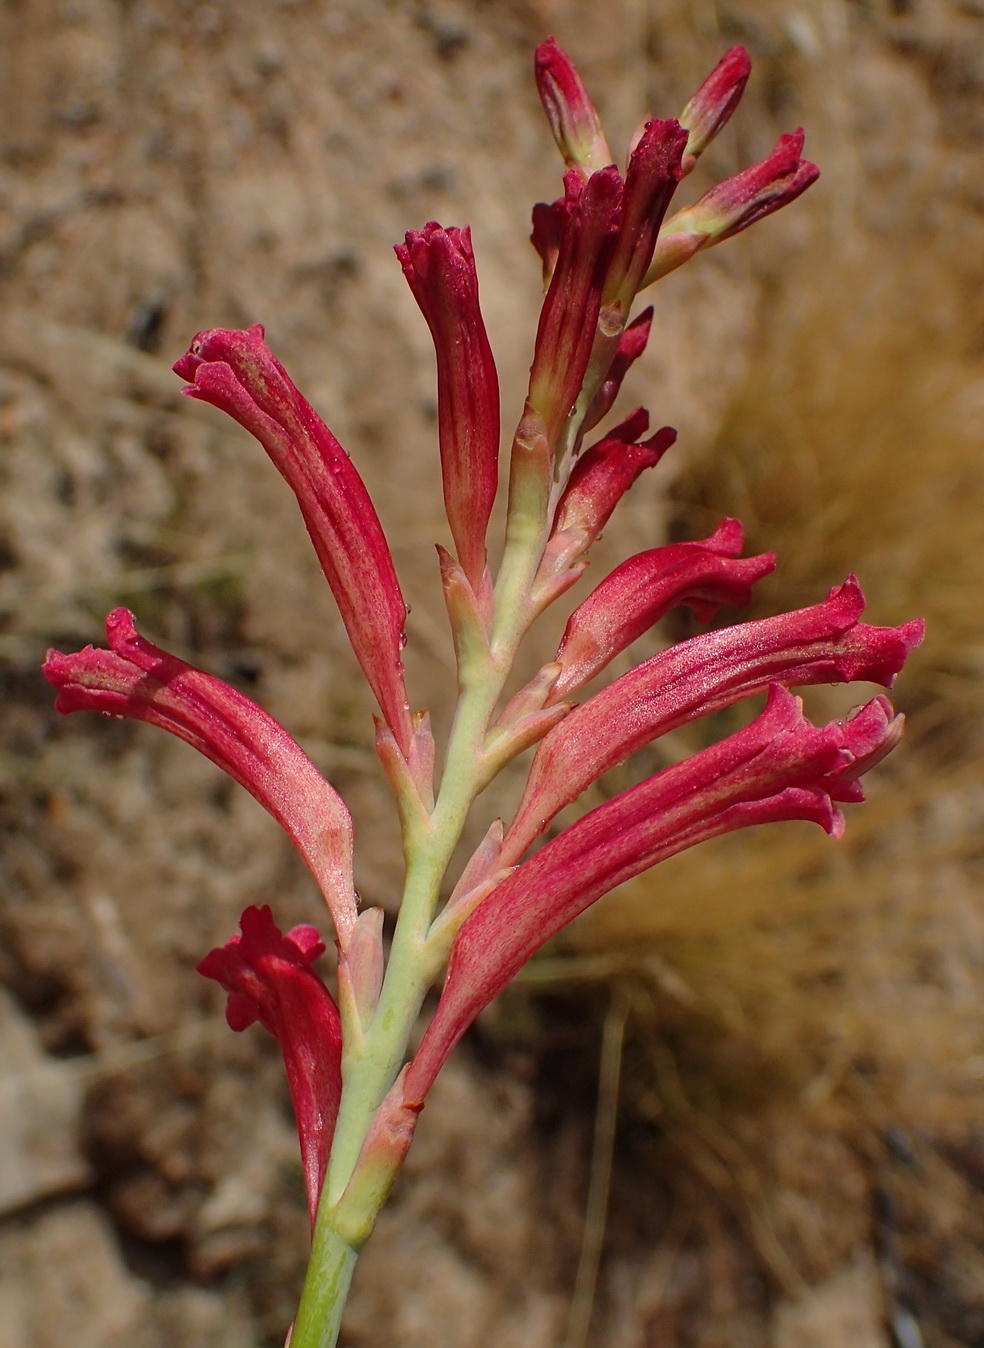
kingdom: Plantae
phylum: Tracheophyta
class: Liliopsida
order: Asparagales
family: Iridaceae
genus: Tritoniopsis
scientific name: Tritoniopsis antholyza
